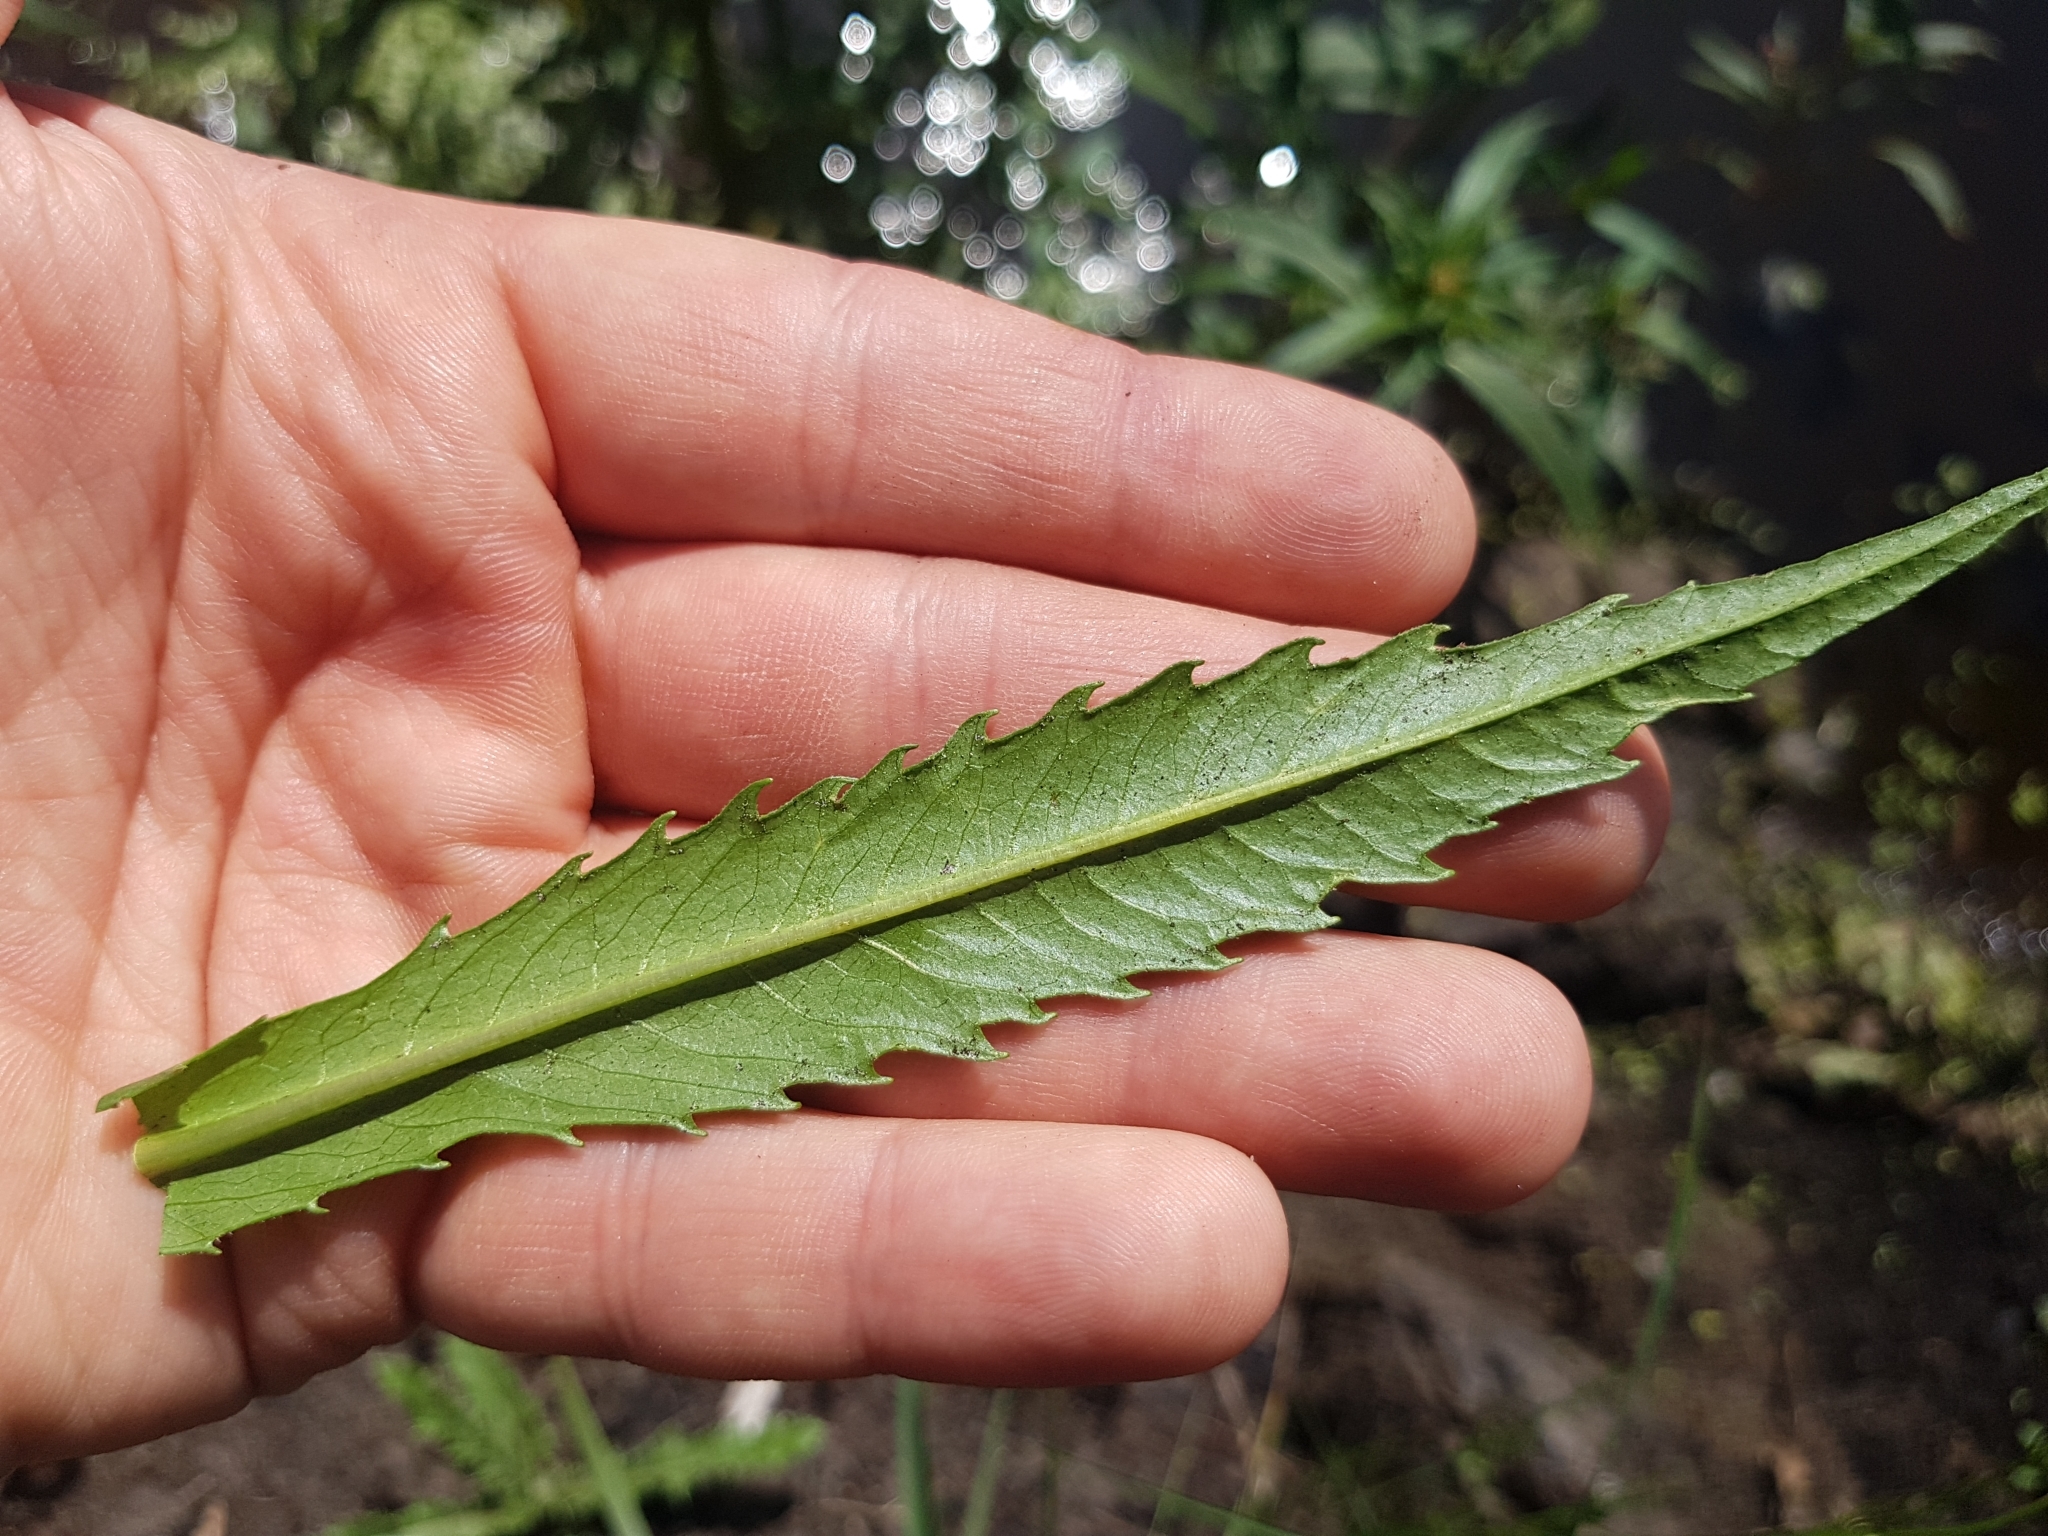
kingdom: Plantae
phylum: Tracheophyta
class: Magnoliopsida
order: Asterales
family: Asteraceae
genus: Bidens
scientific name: Bidens cernua
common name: Nodding bur-marigold
